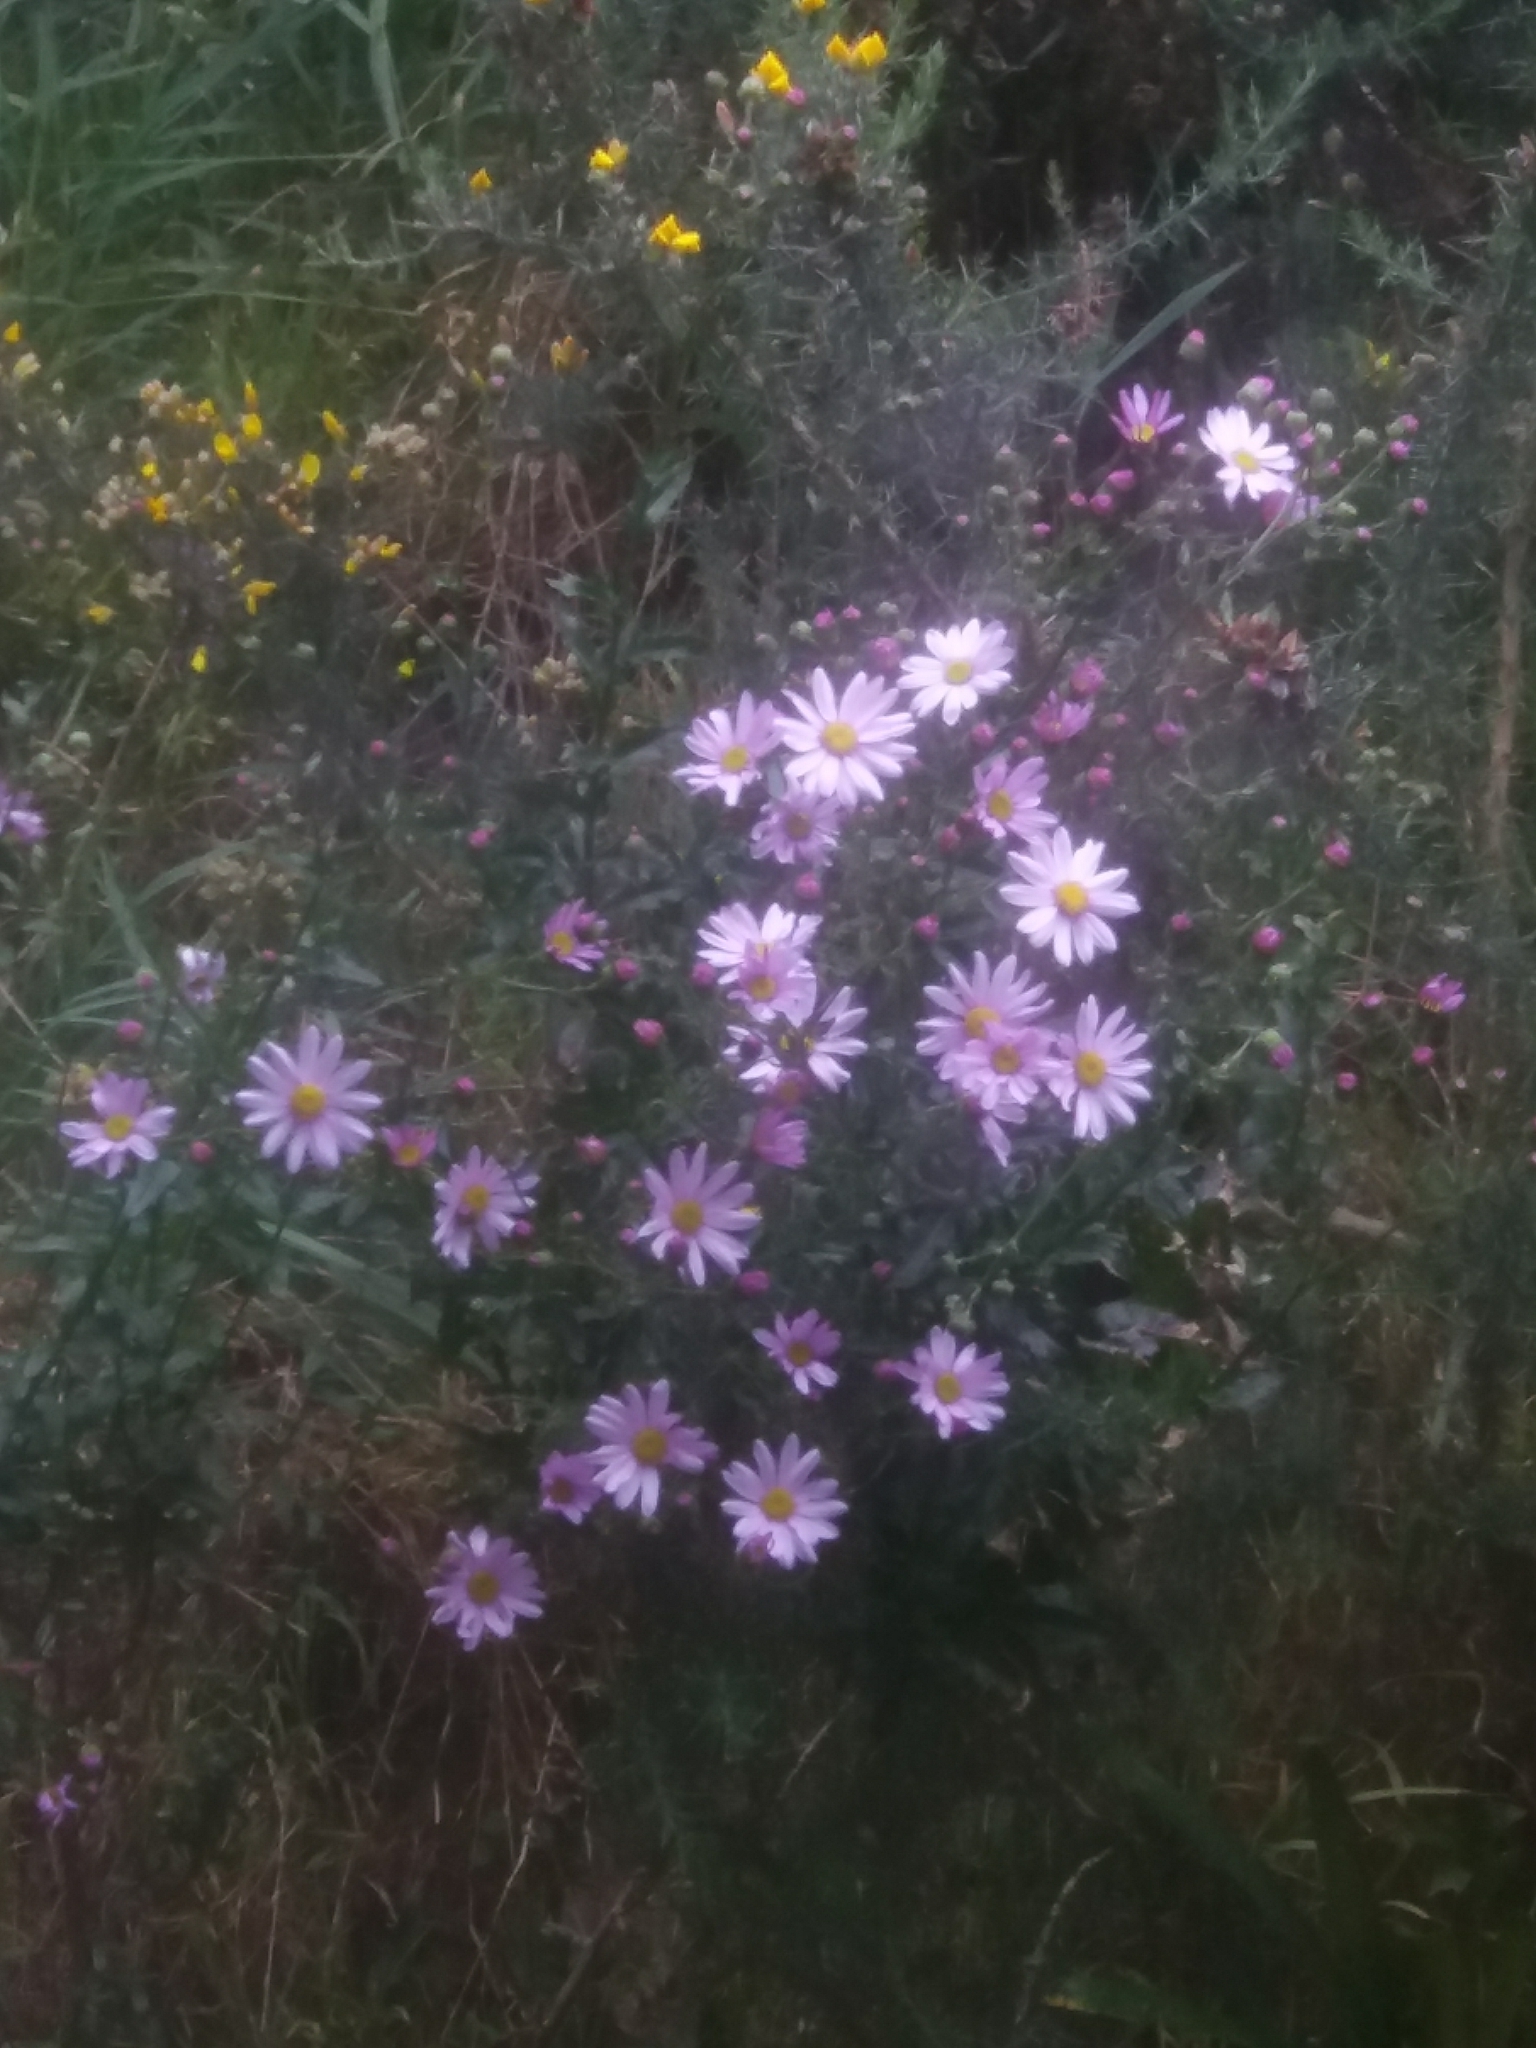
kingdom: Plantae
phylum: Tracheophyta
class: Magnoliopsida
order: Asterales
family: Asteraceae
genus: Senecio
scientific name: Senecio glastifolius
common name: Woad-leaved ragwort
